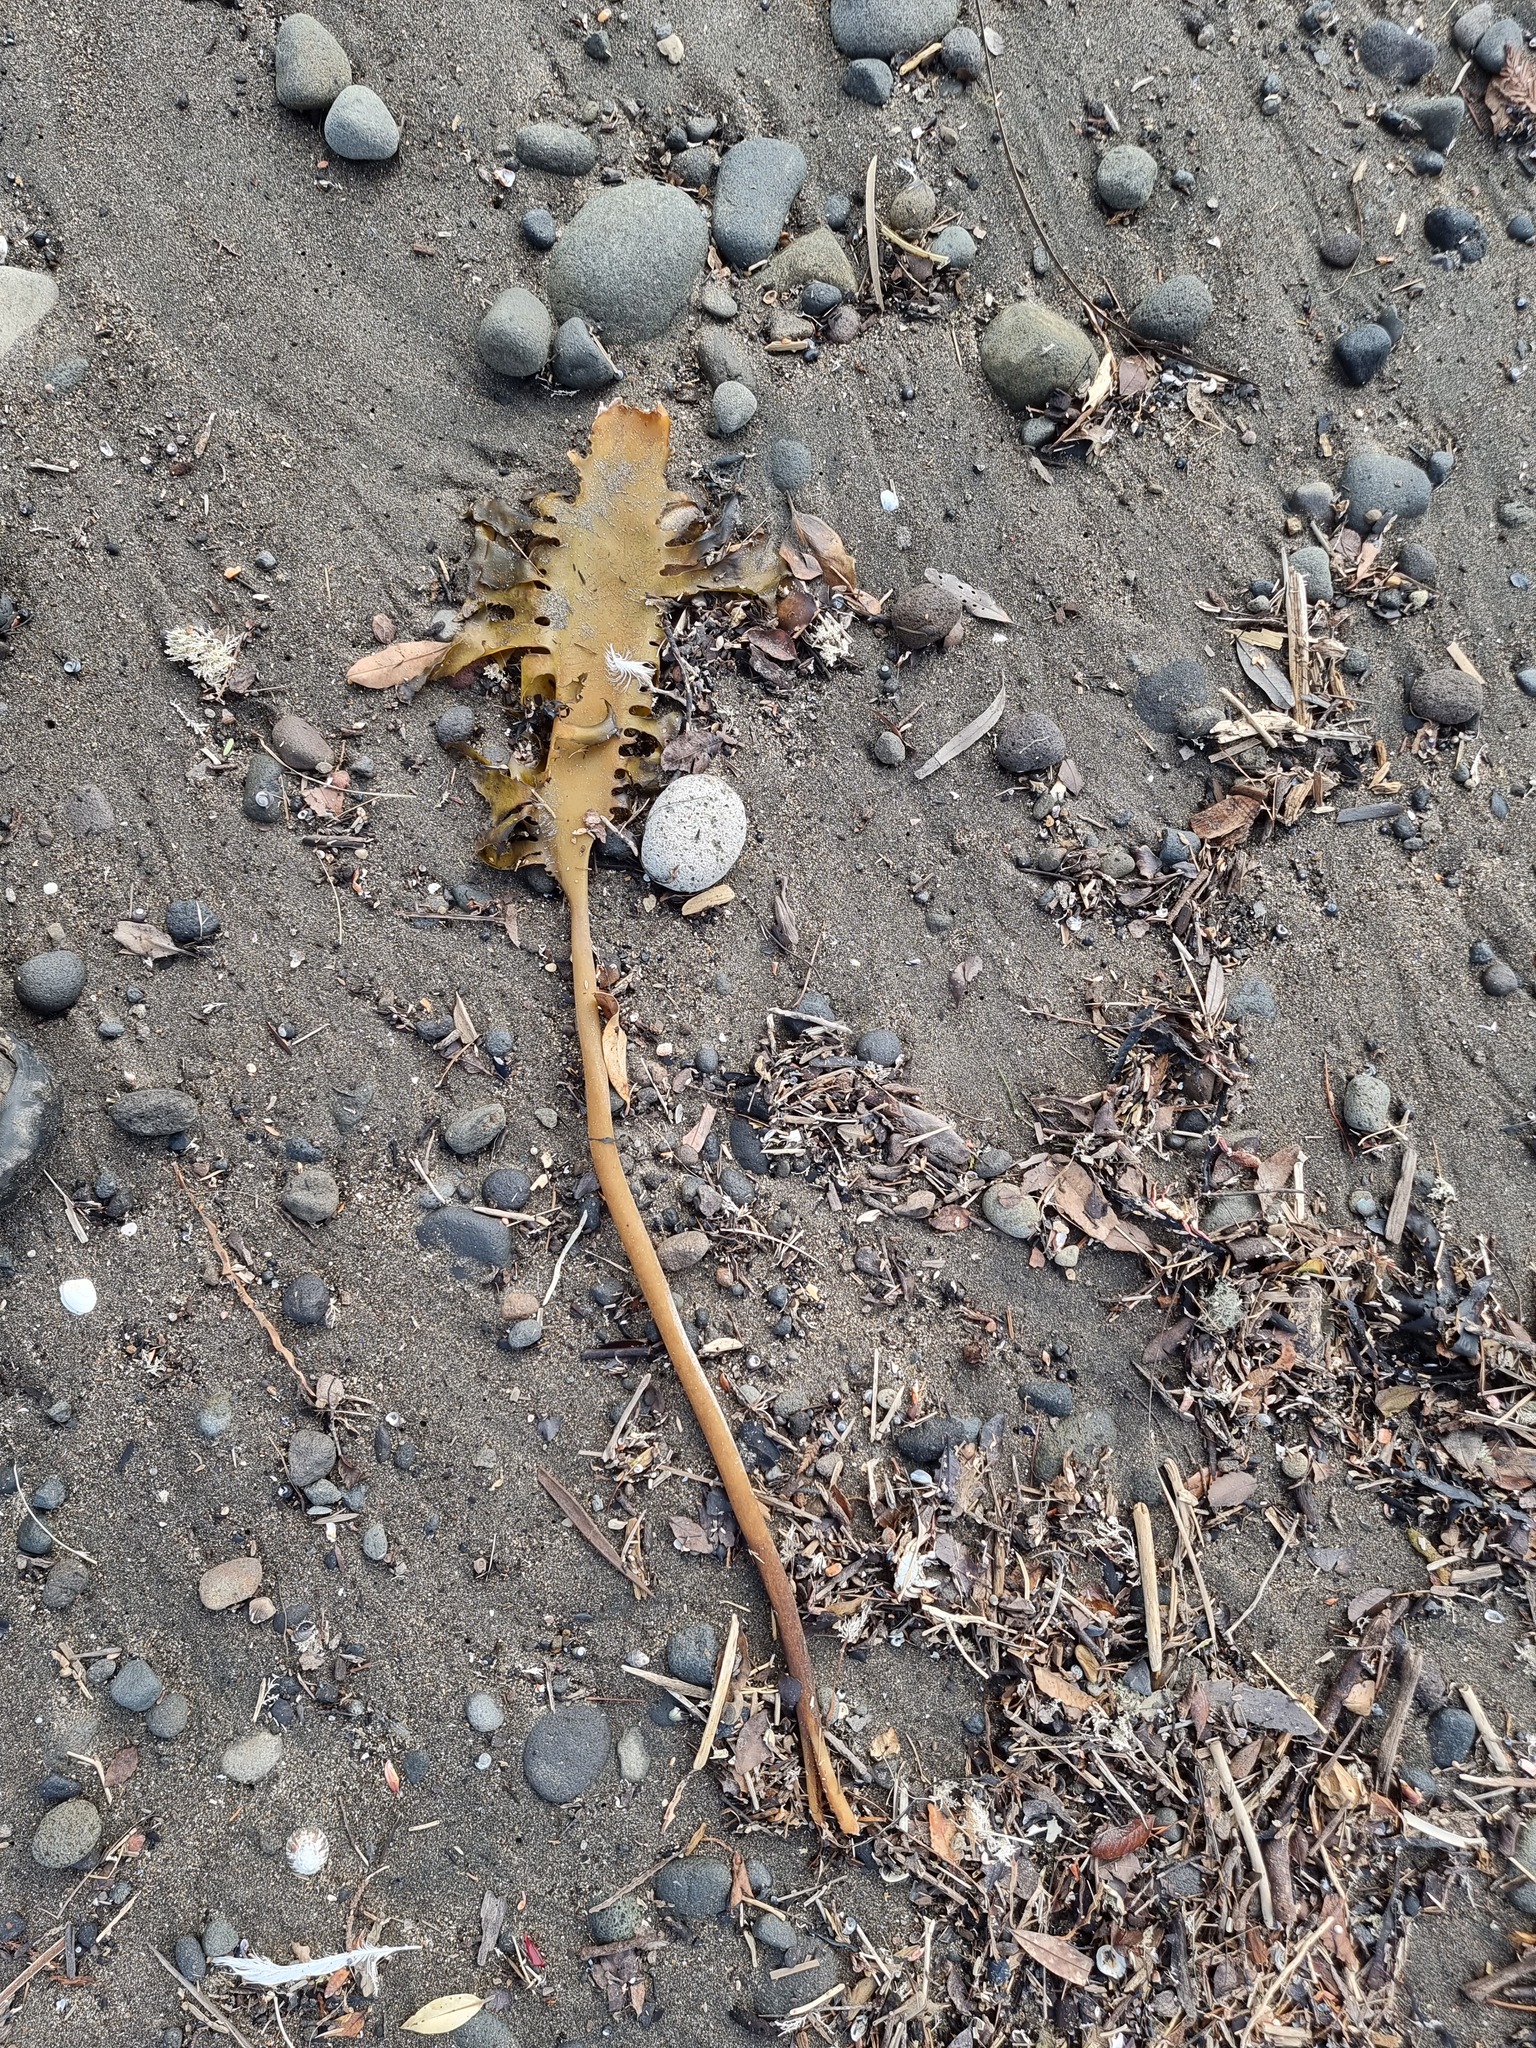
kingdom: Chromista
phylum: Ochrophyta
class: Phaeophyceae
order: Laminariales
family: Lessoniaceae
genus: Ecklonia
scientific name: Ecklonia radiata
